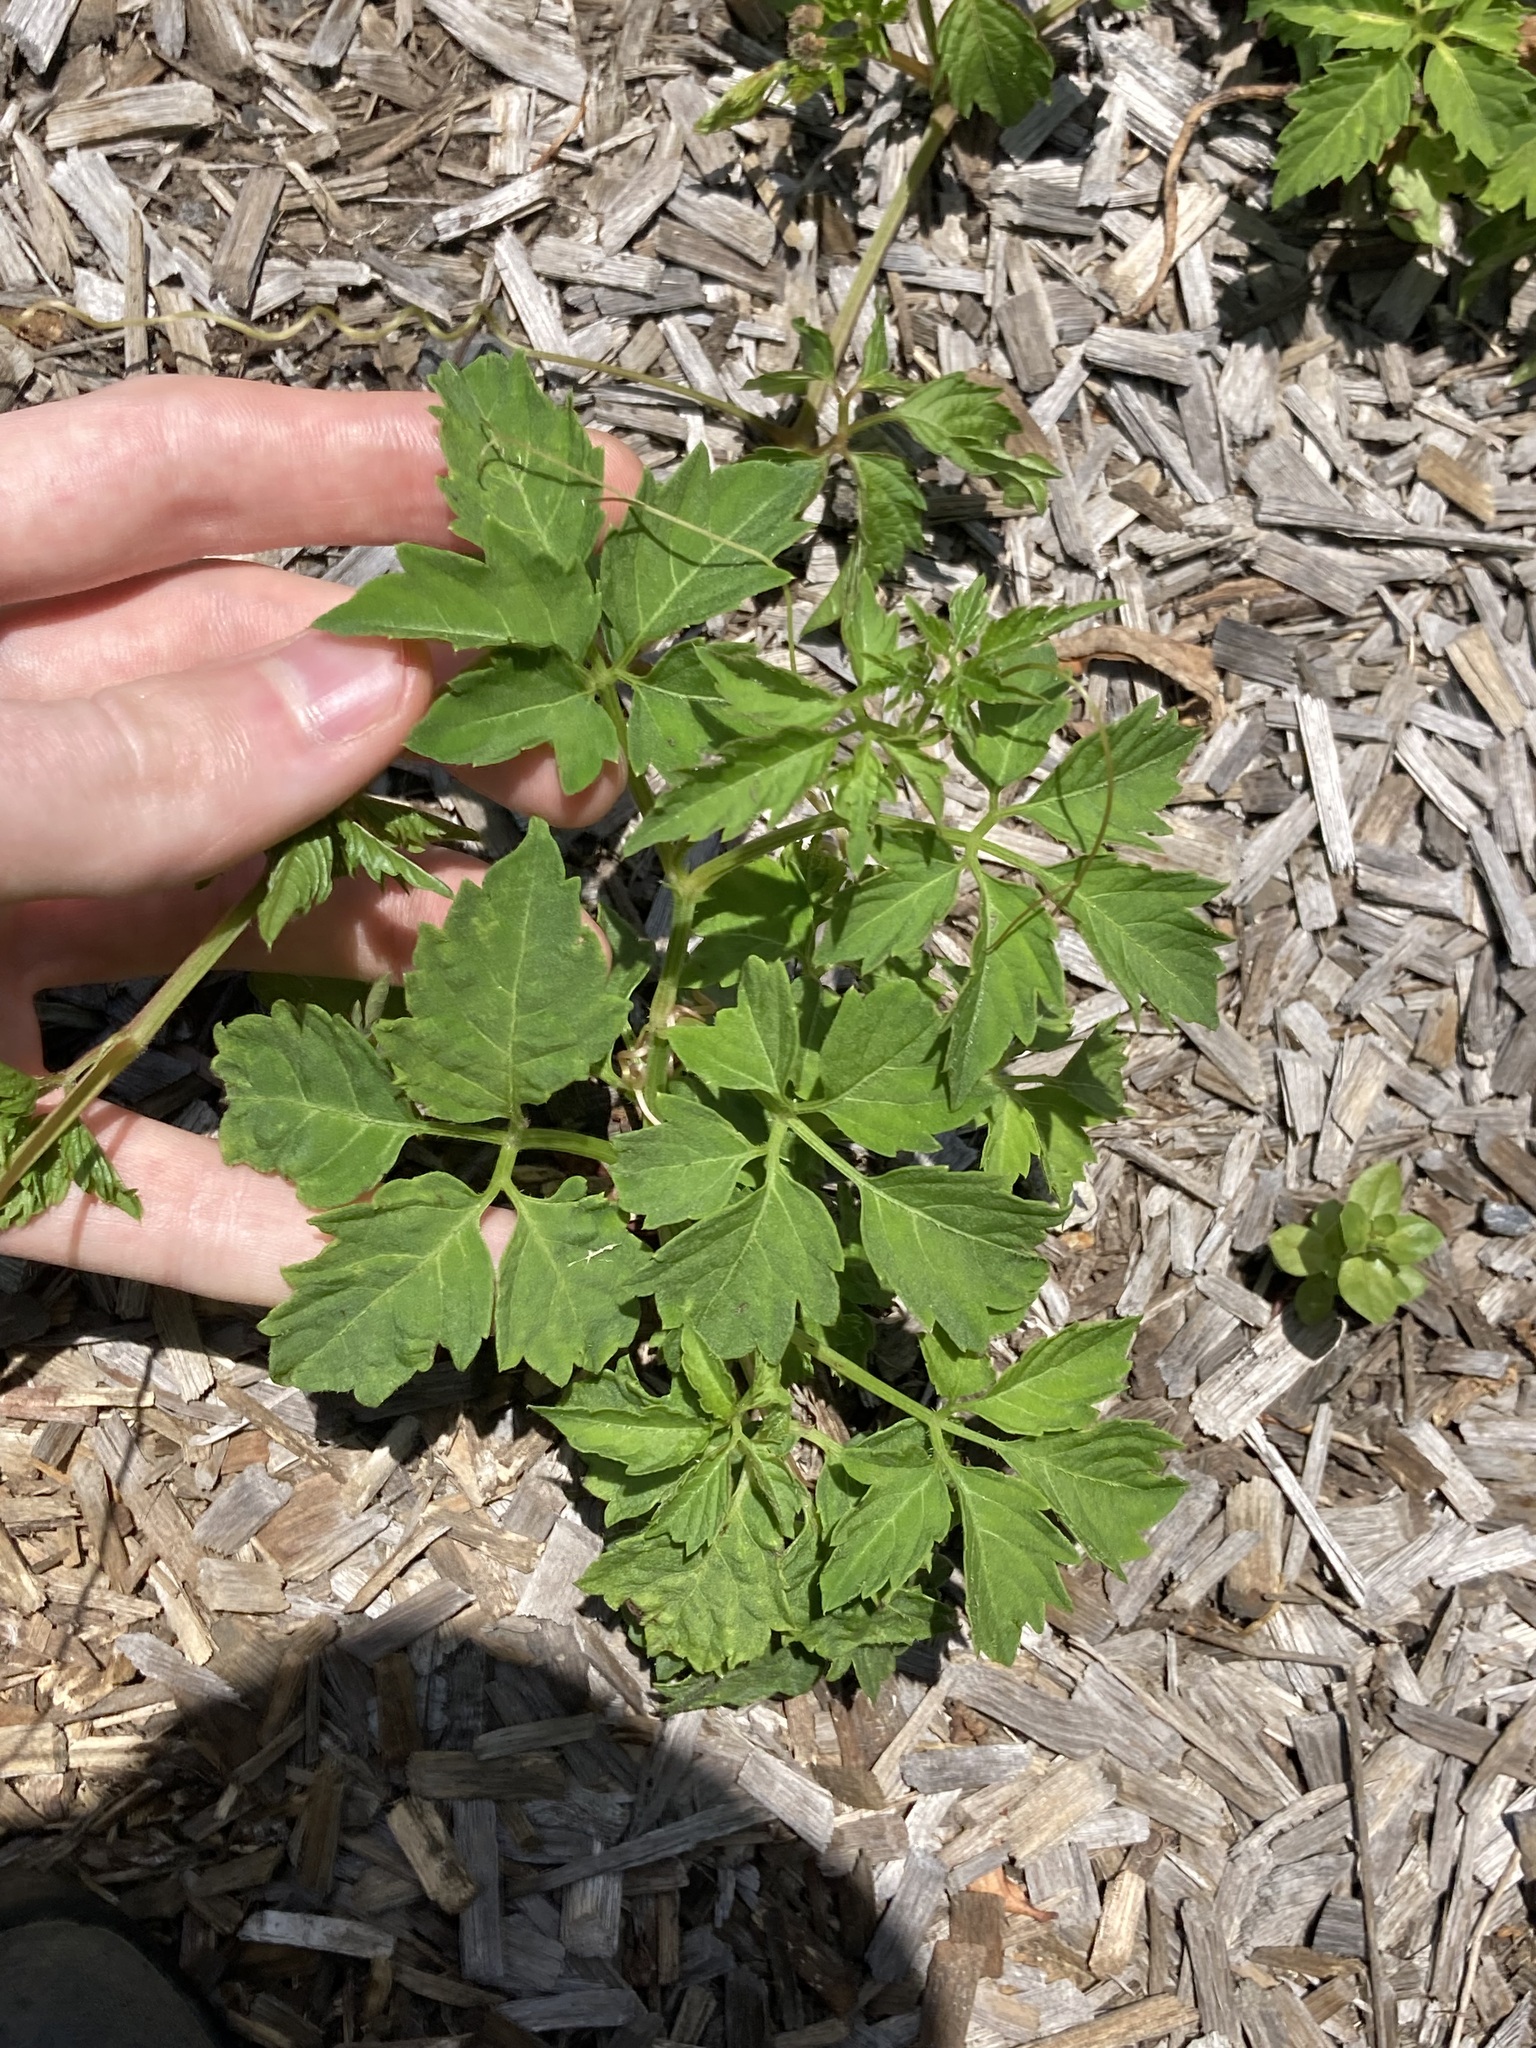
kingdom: Plantae
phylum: Tracheophyta
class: Magnoliopsida
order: Vitales
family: Vitaceae
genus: Causonis
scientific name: Causonis clematidea
